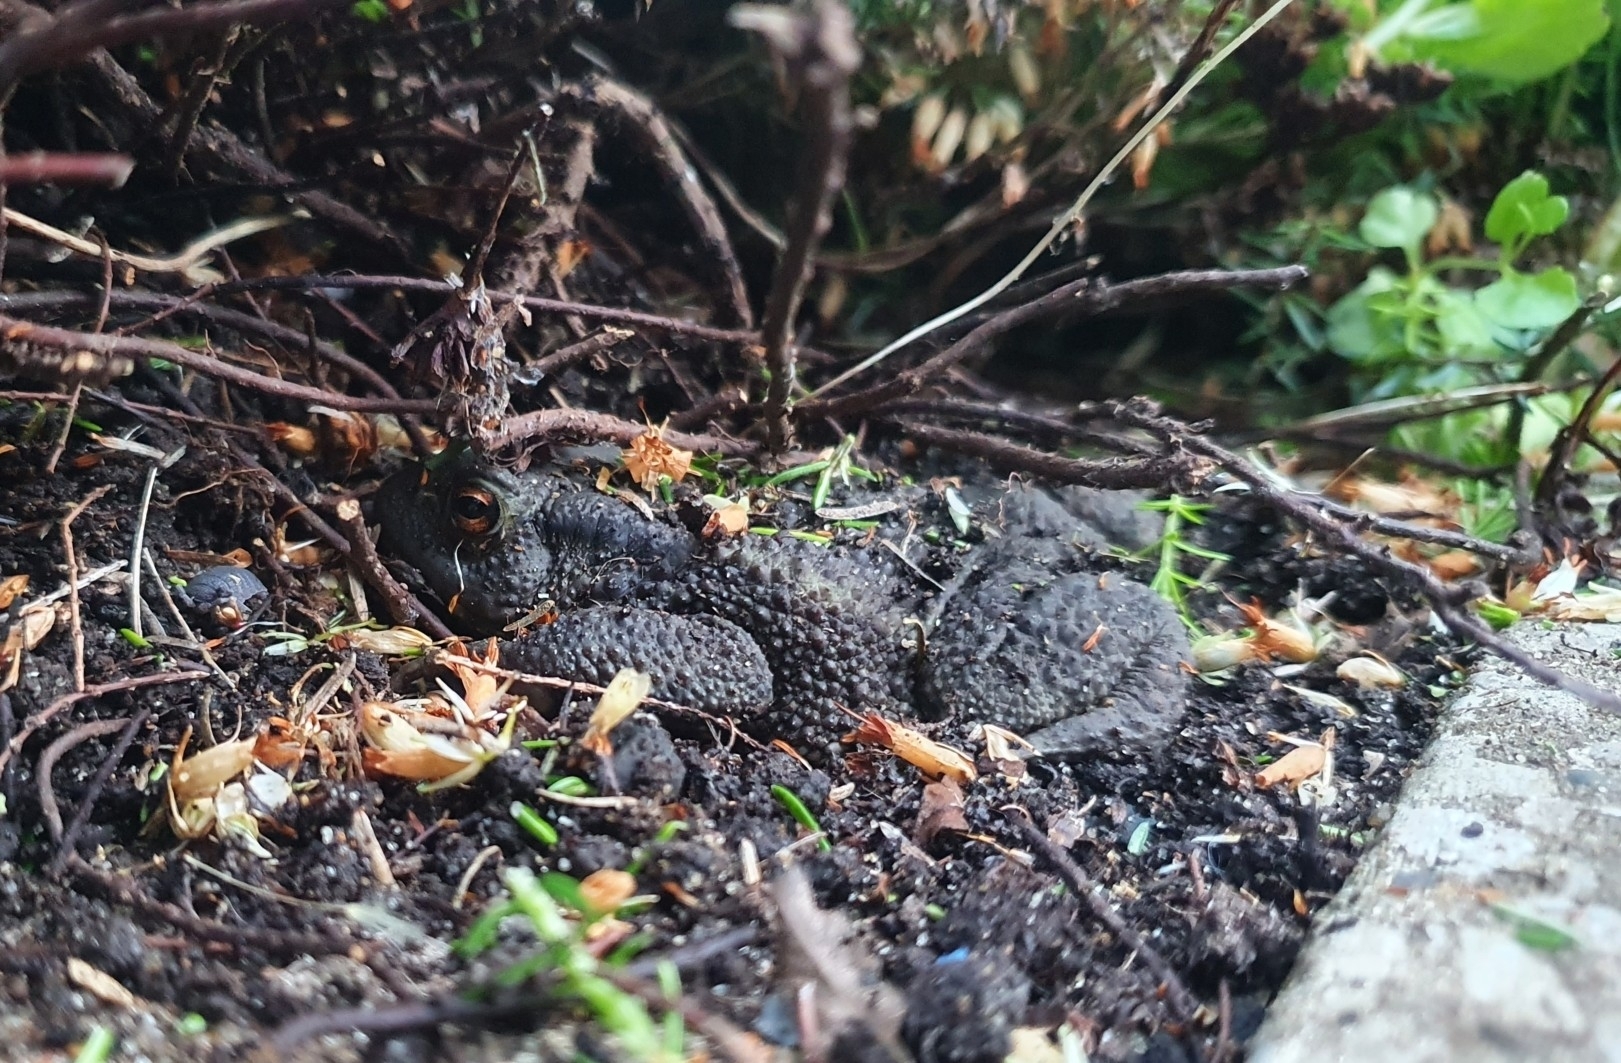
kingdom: Animalia
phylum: Chordata
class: Amphibia
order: Anura
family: Bufonidae
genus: Bufo
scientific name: Bufo bufo
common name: Common toad
